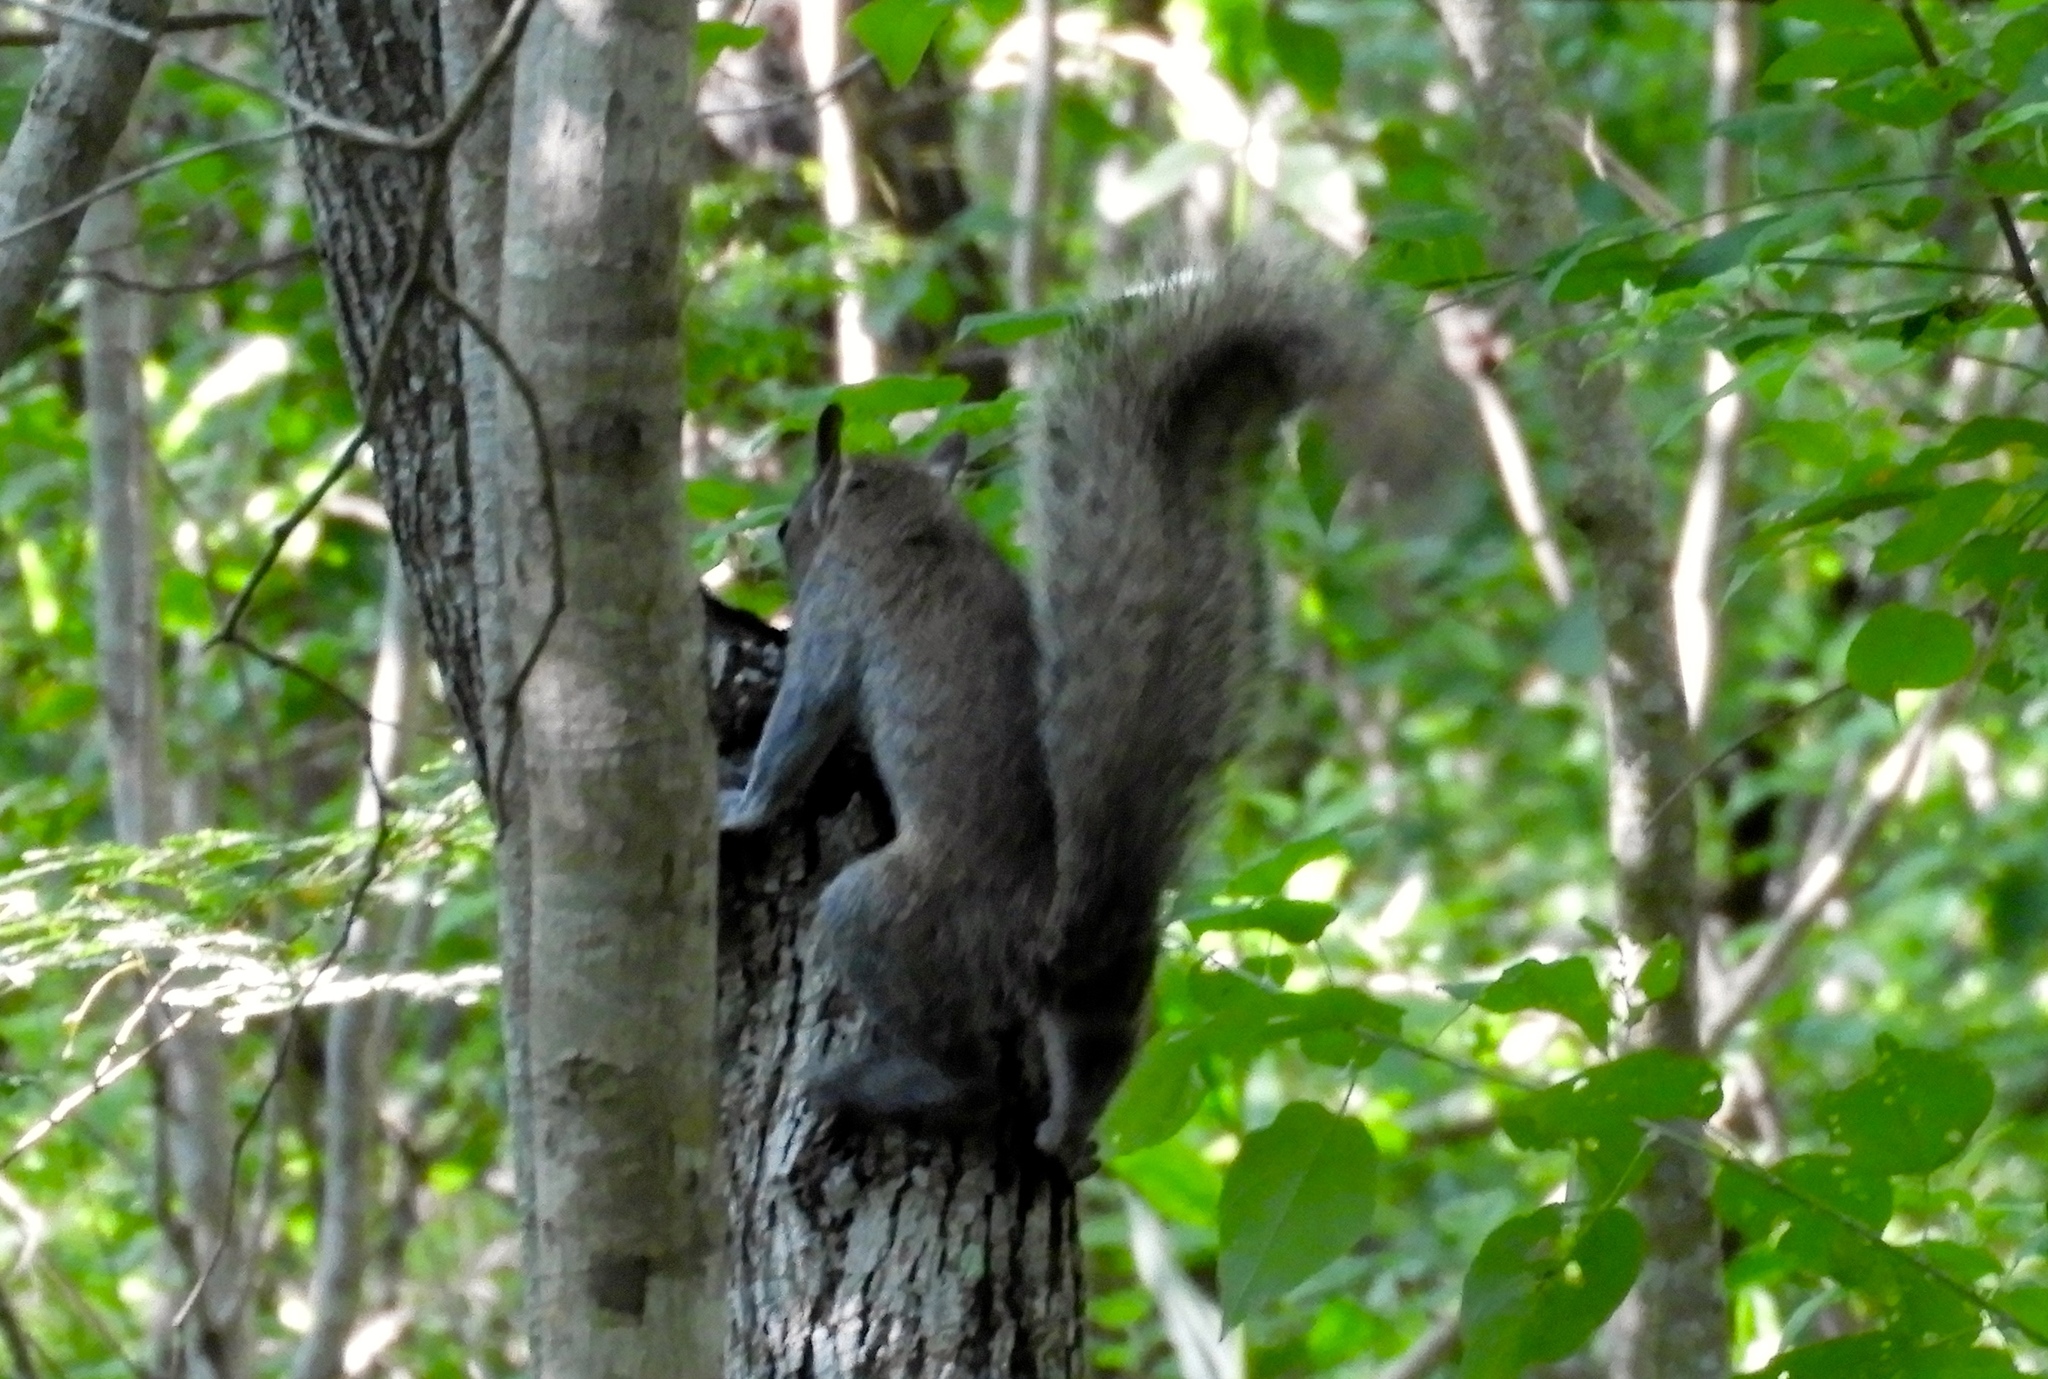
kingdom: Animalia
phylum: Chordata
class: Mammalia
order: Rodentia
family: Sciuridae
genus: Sciurus
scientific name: Sciurus colliaei
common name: Collie's squirrel
